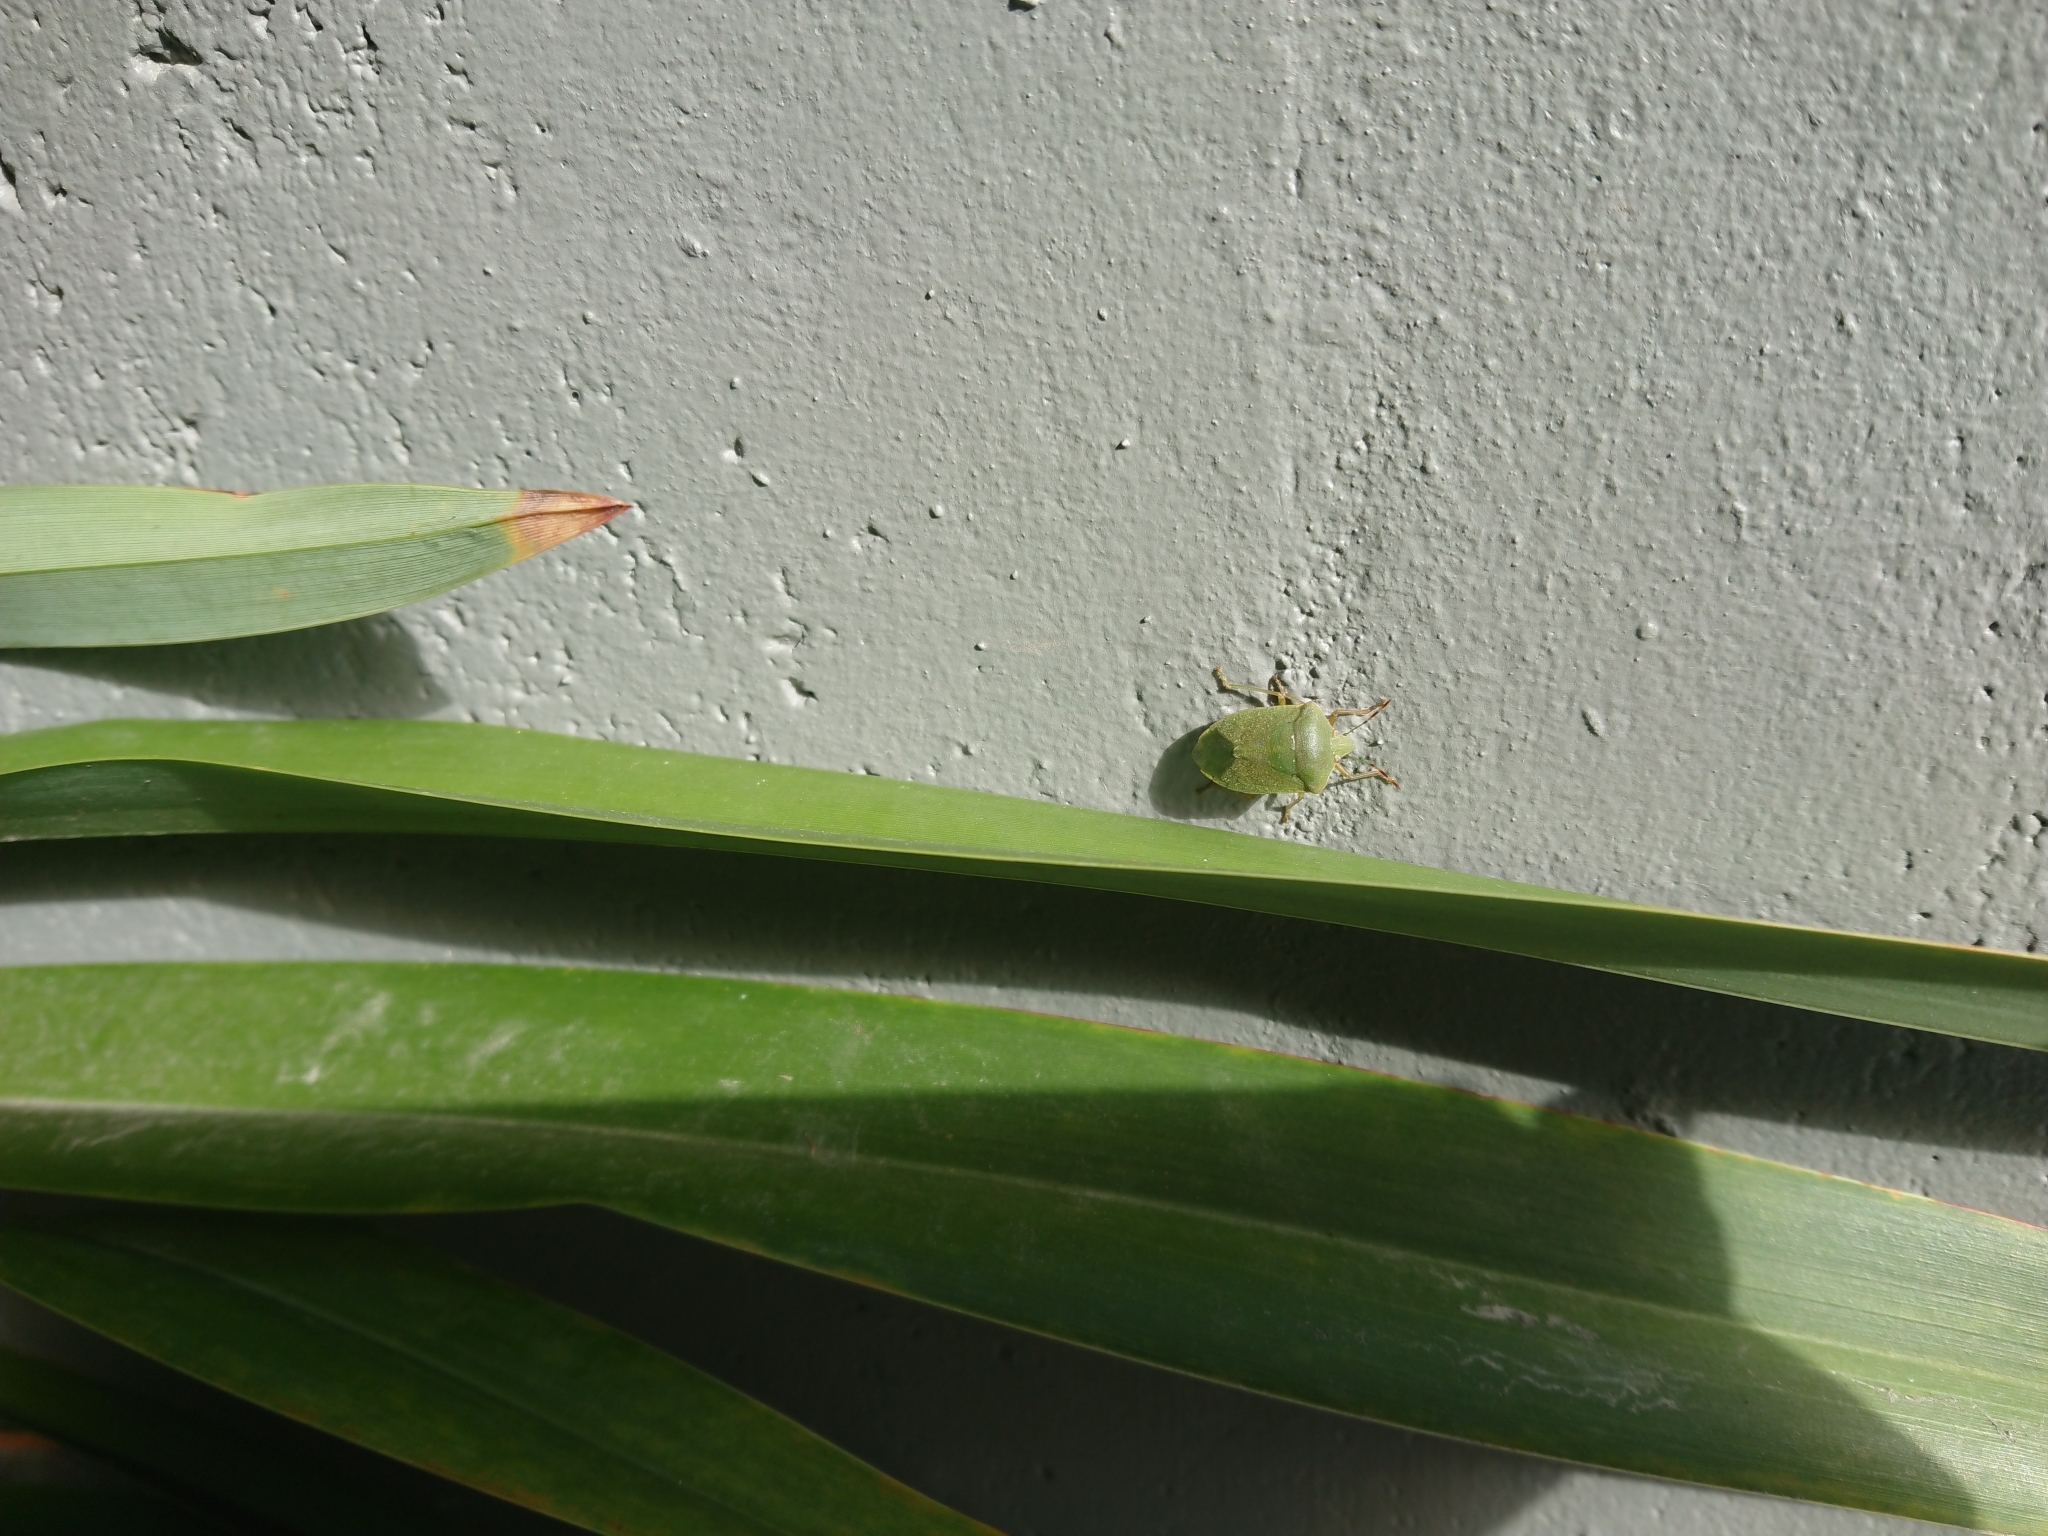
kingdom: Animalia
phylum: Arthropoda
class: Insecta
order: Hemiptera
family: Pentatomidae
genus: Nezara
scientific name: Nezara viridula
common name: Southern green stink bug
